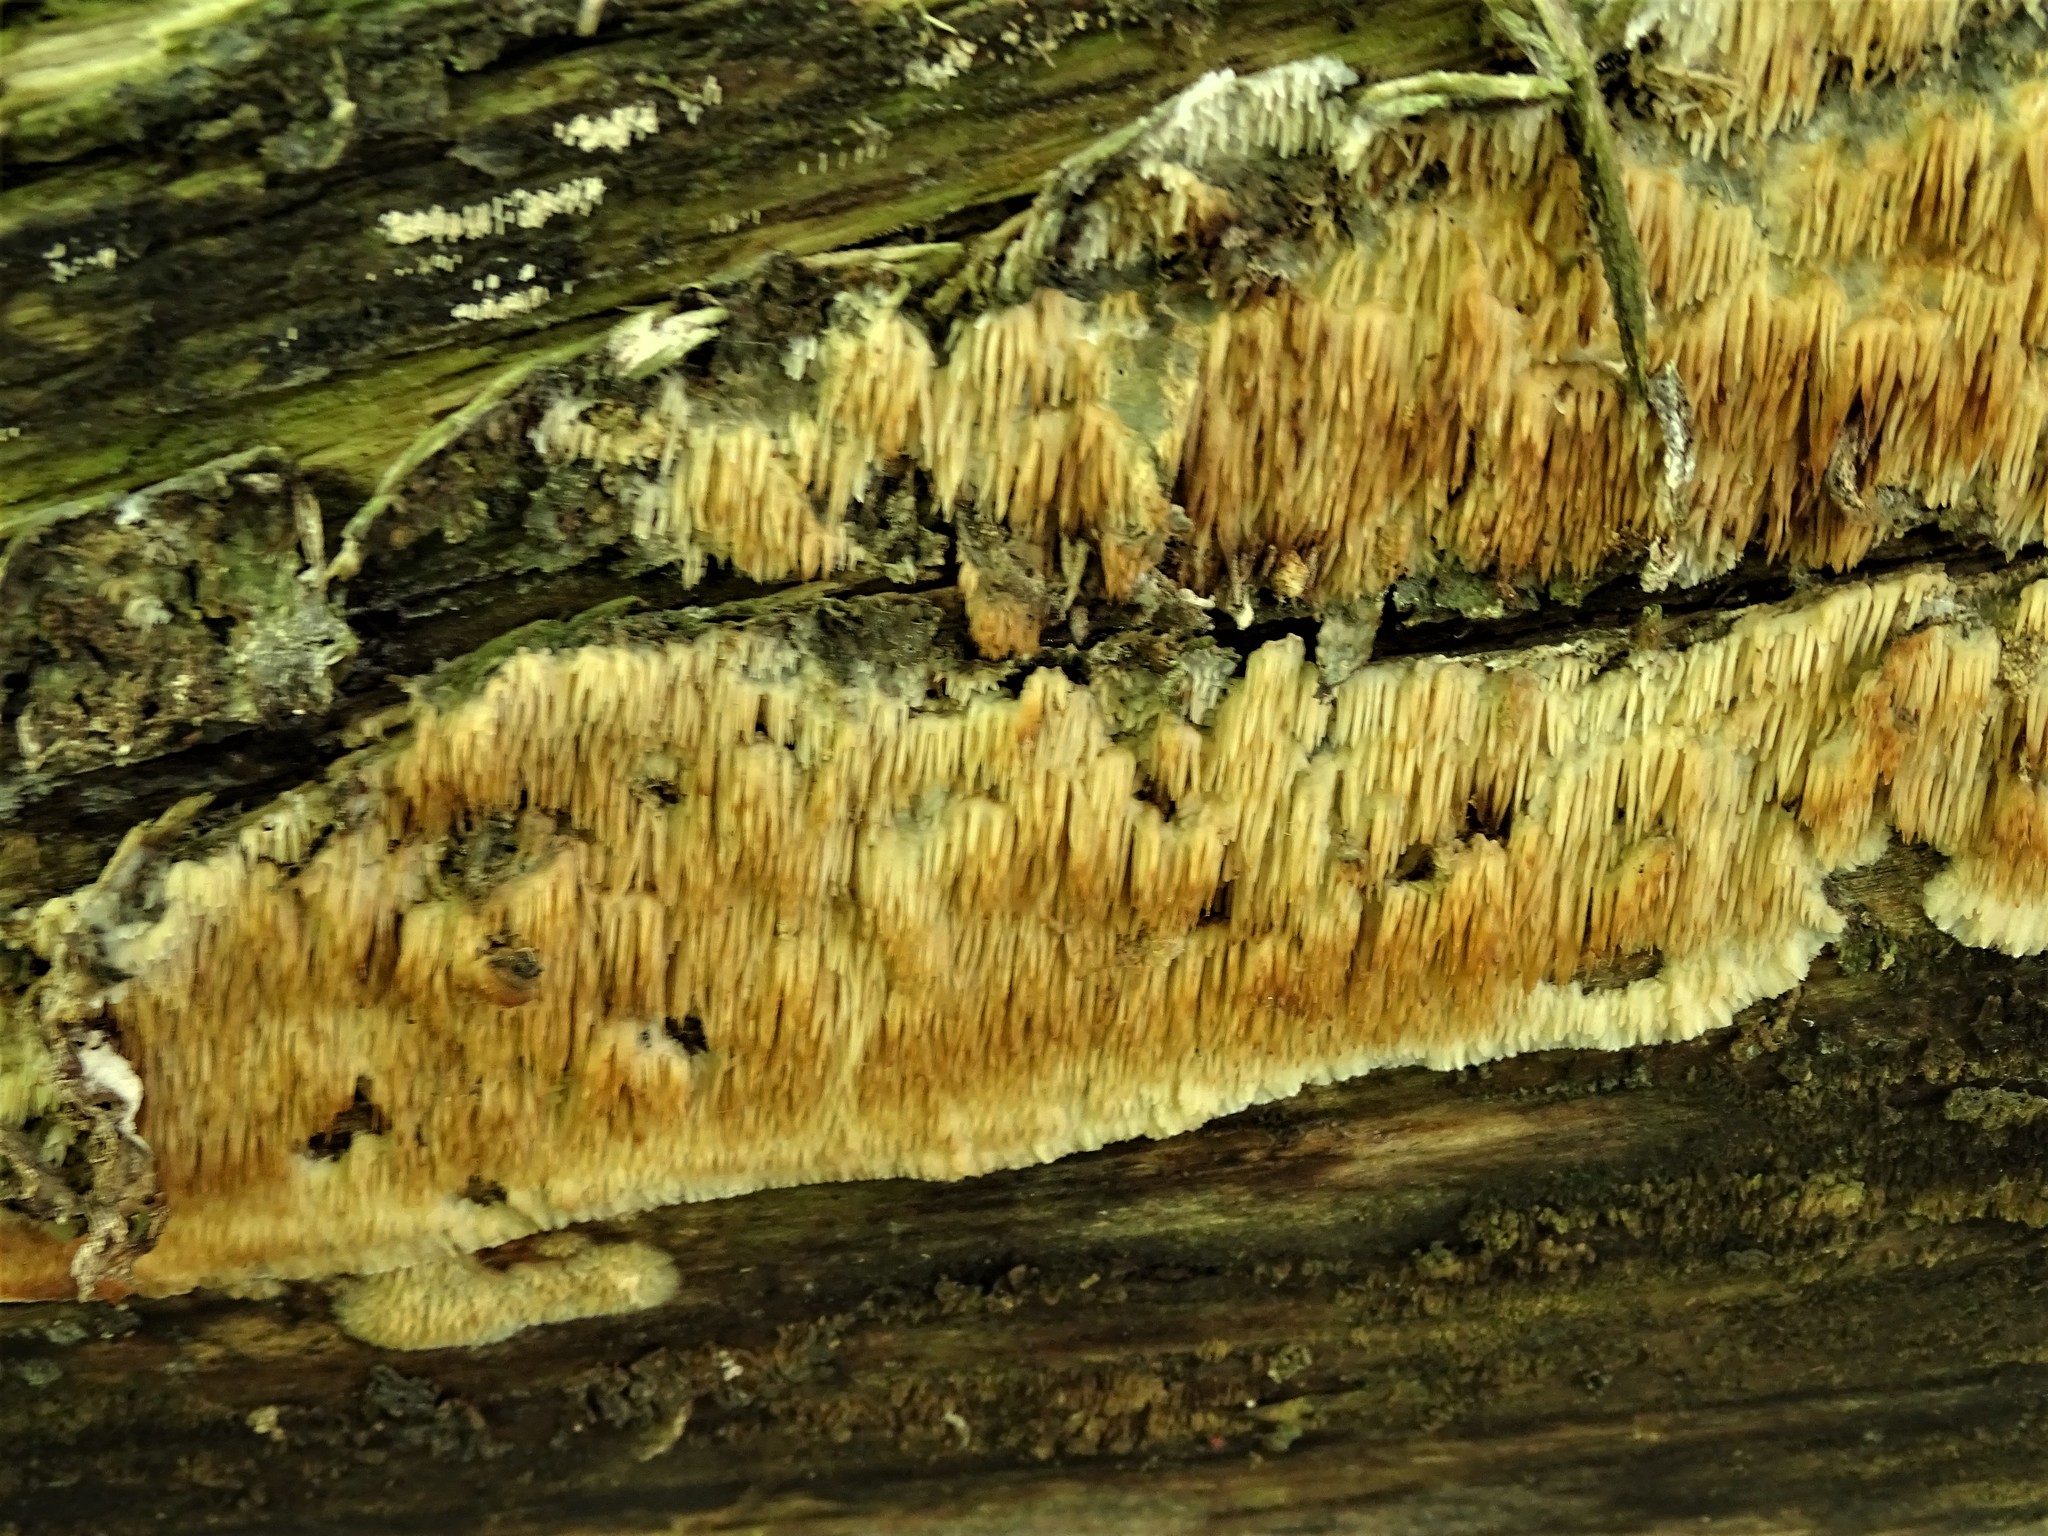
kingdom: Fungi
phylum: Basidiomycota
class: Agaricomycetes
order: Agaricales
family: Radulomycetaceae
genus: Radulomyces
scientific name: Radulomyces copelandii
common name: Asian beauty
